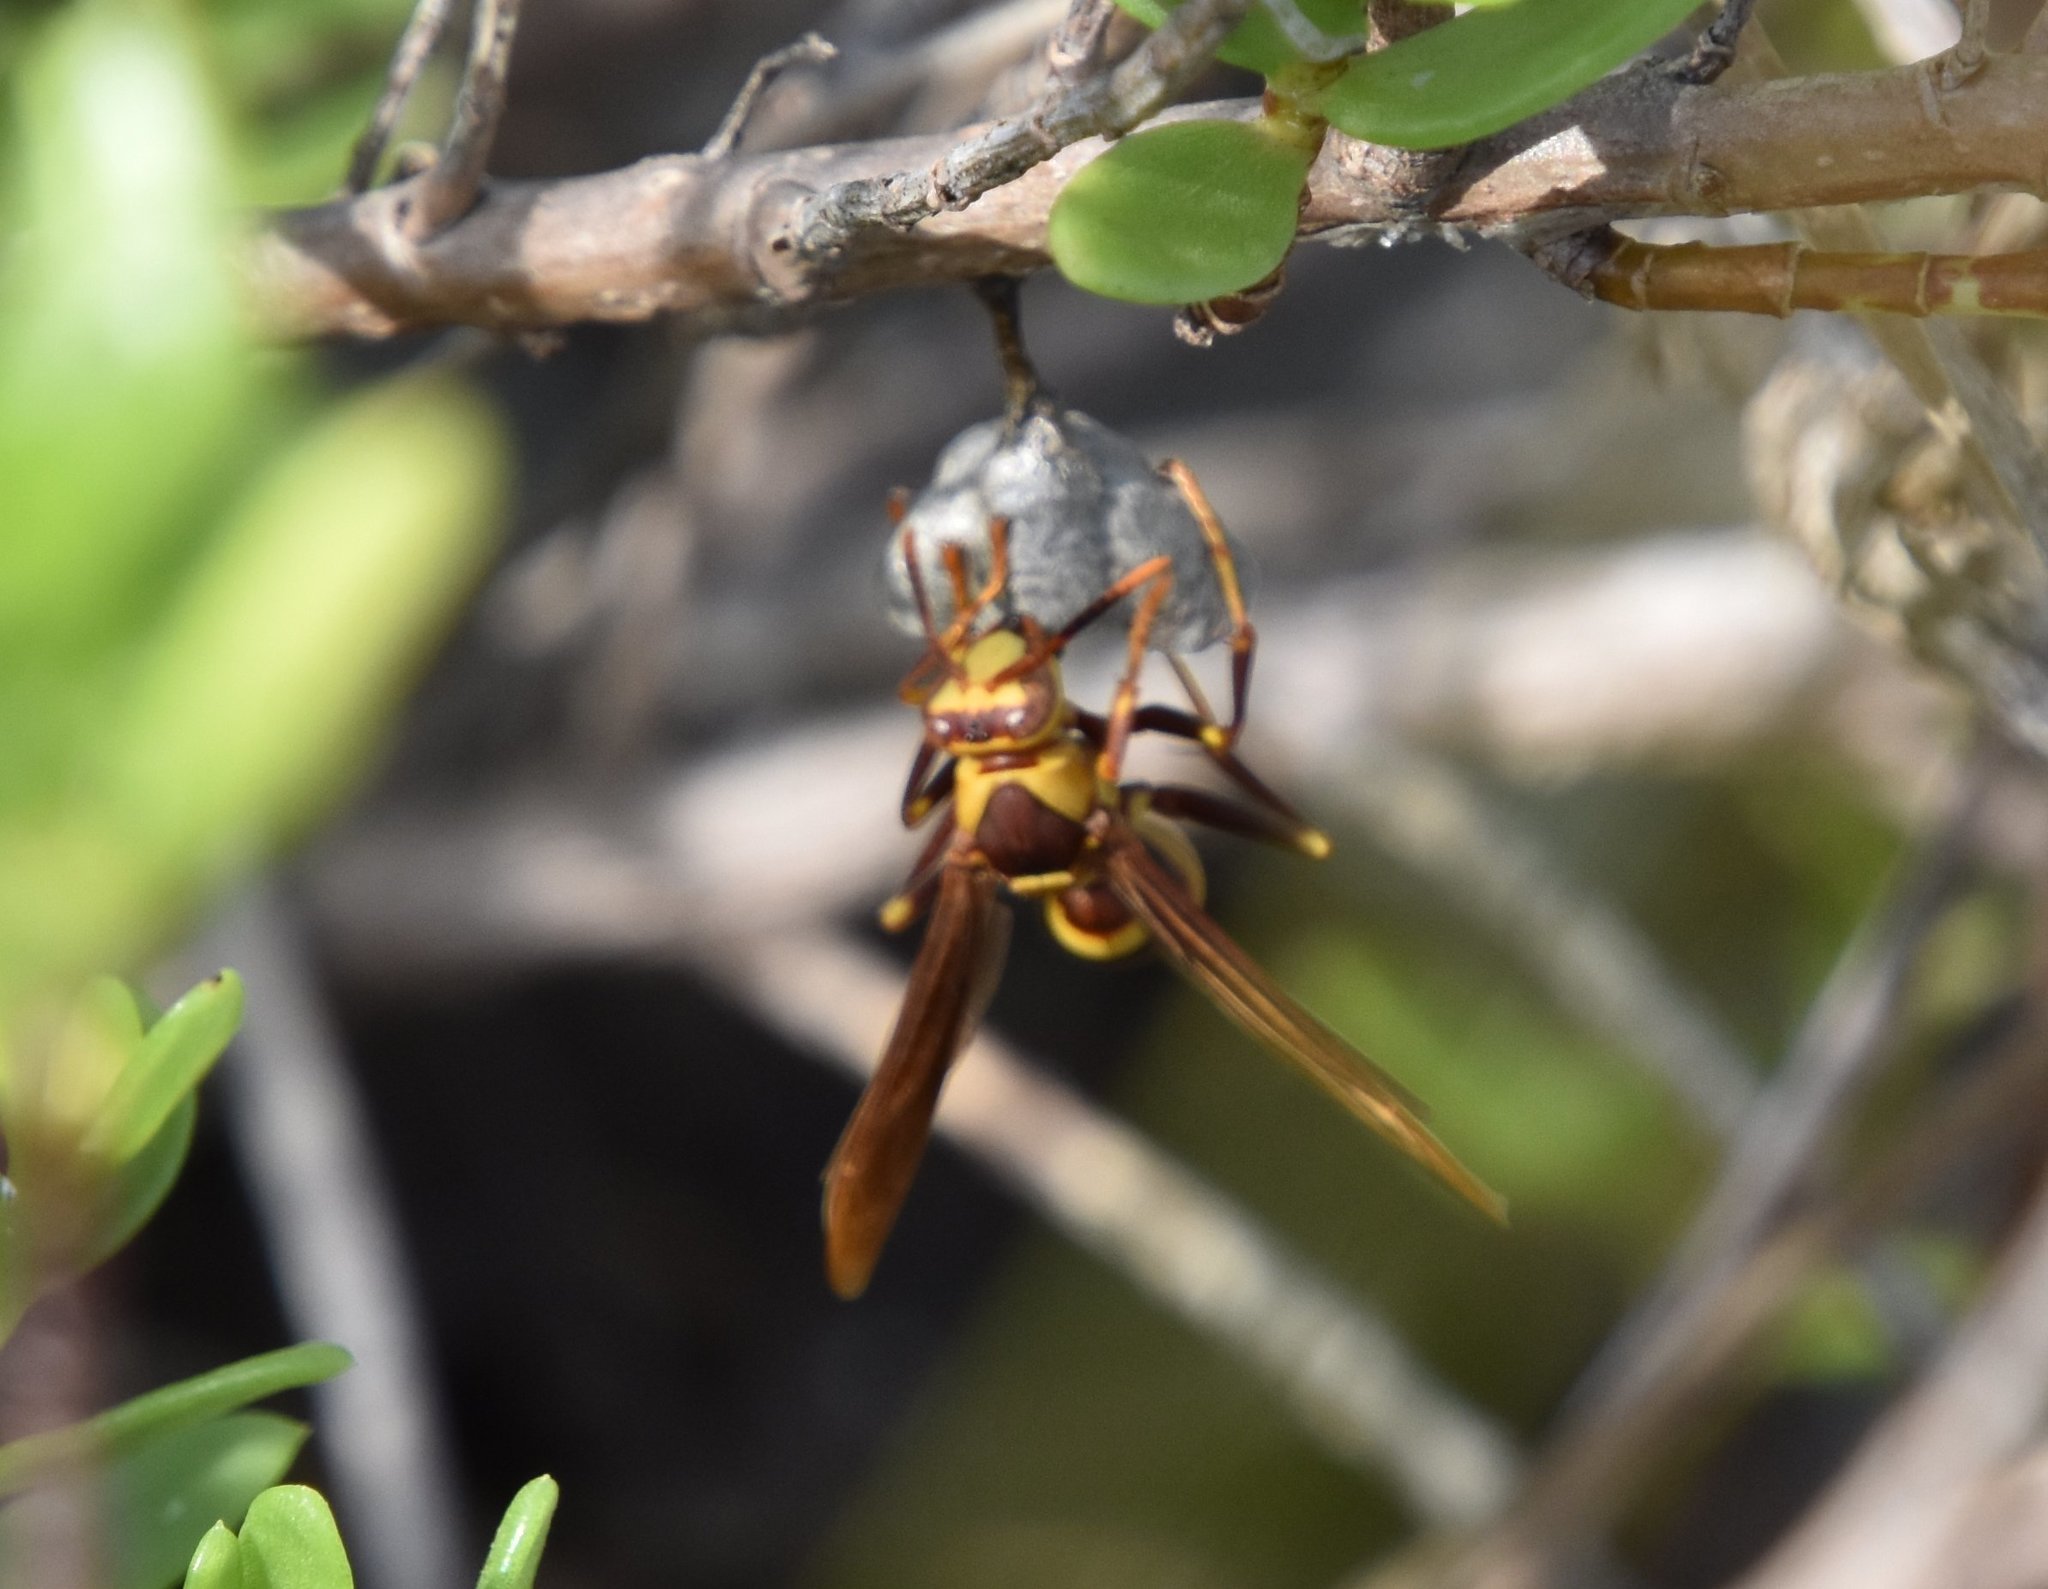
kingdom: Animalia
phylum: Arthropoda
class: Insecta
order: Hymenoptera
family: Eumenidae
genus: Polistes
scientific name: Polistes major
